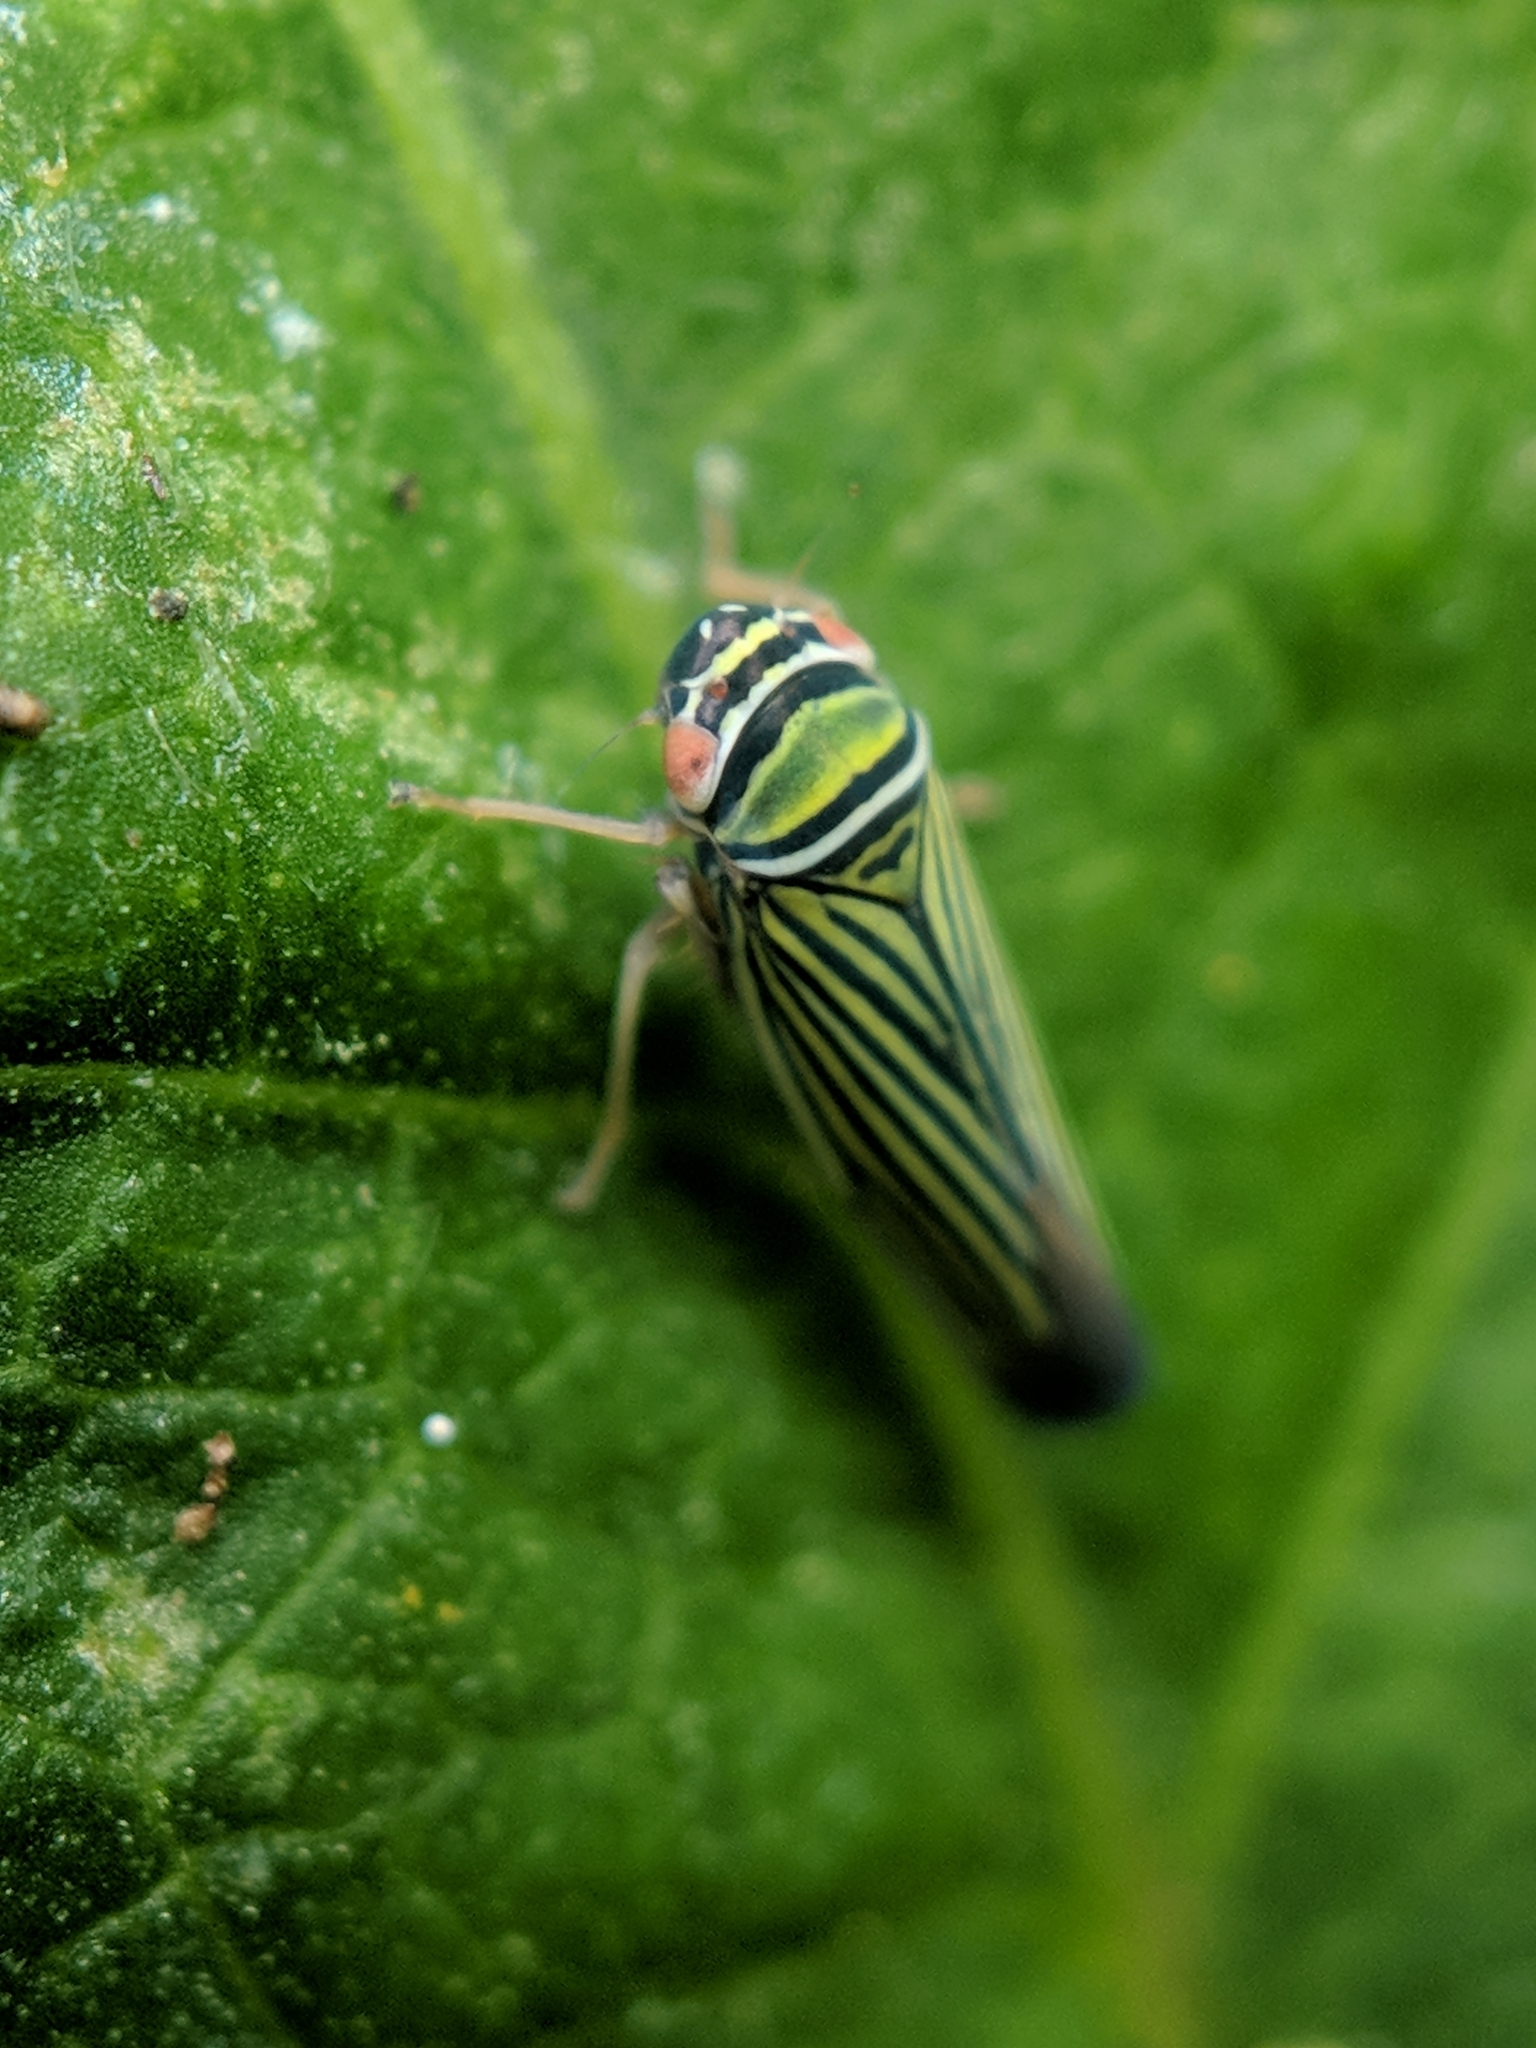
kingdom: Animalia
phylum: Arthropoda
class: Insecta
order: Hemiptera
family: Cicadellidae
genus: Tylozygus
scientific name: Tylozygus bifidus
